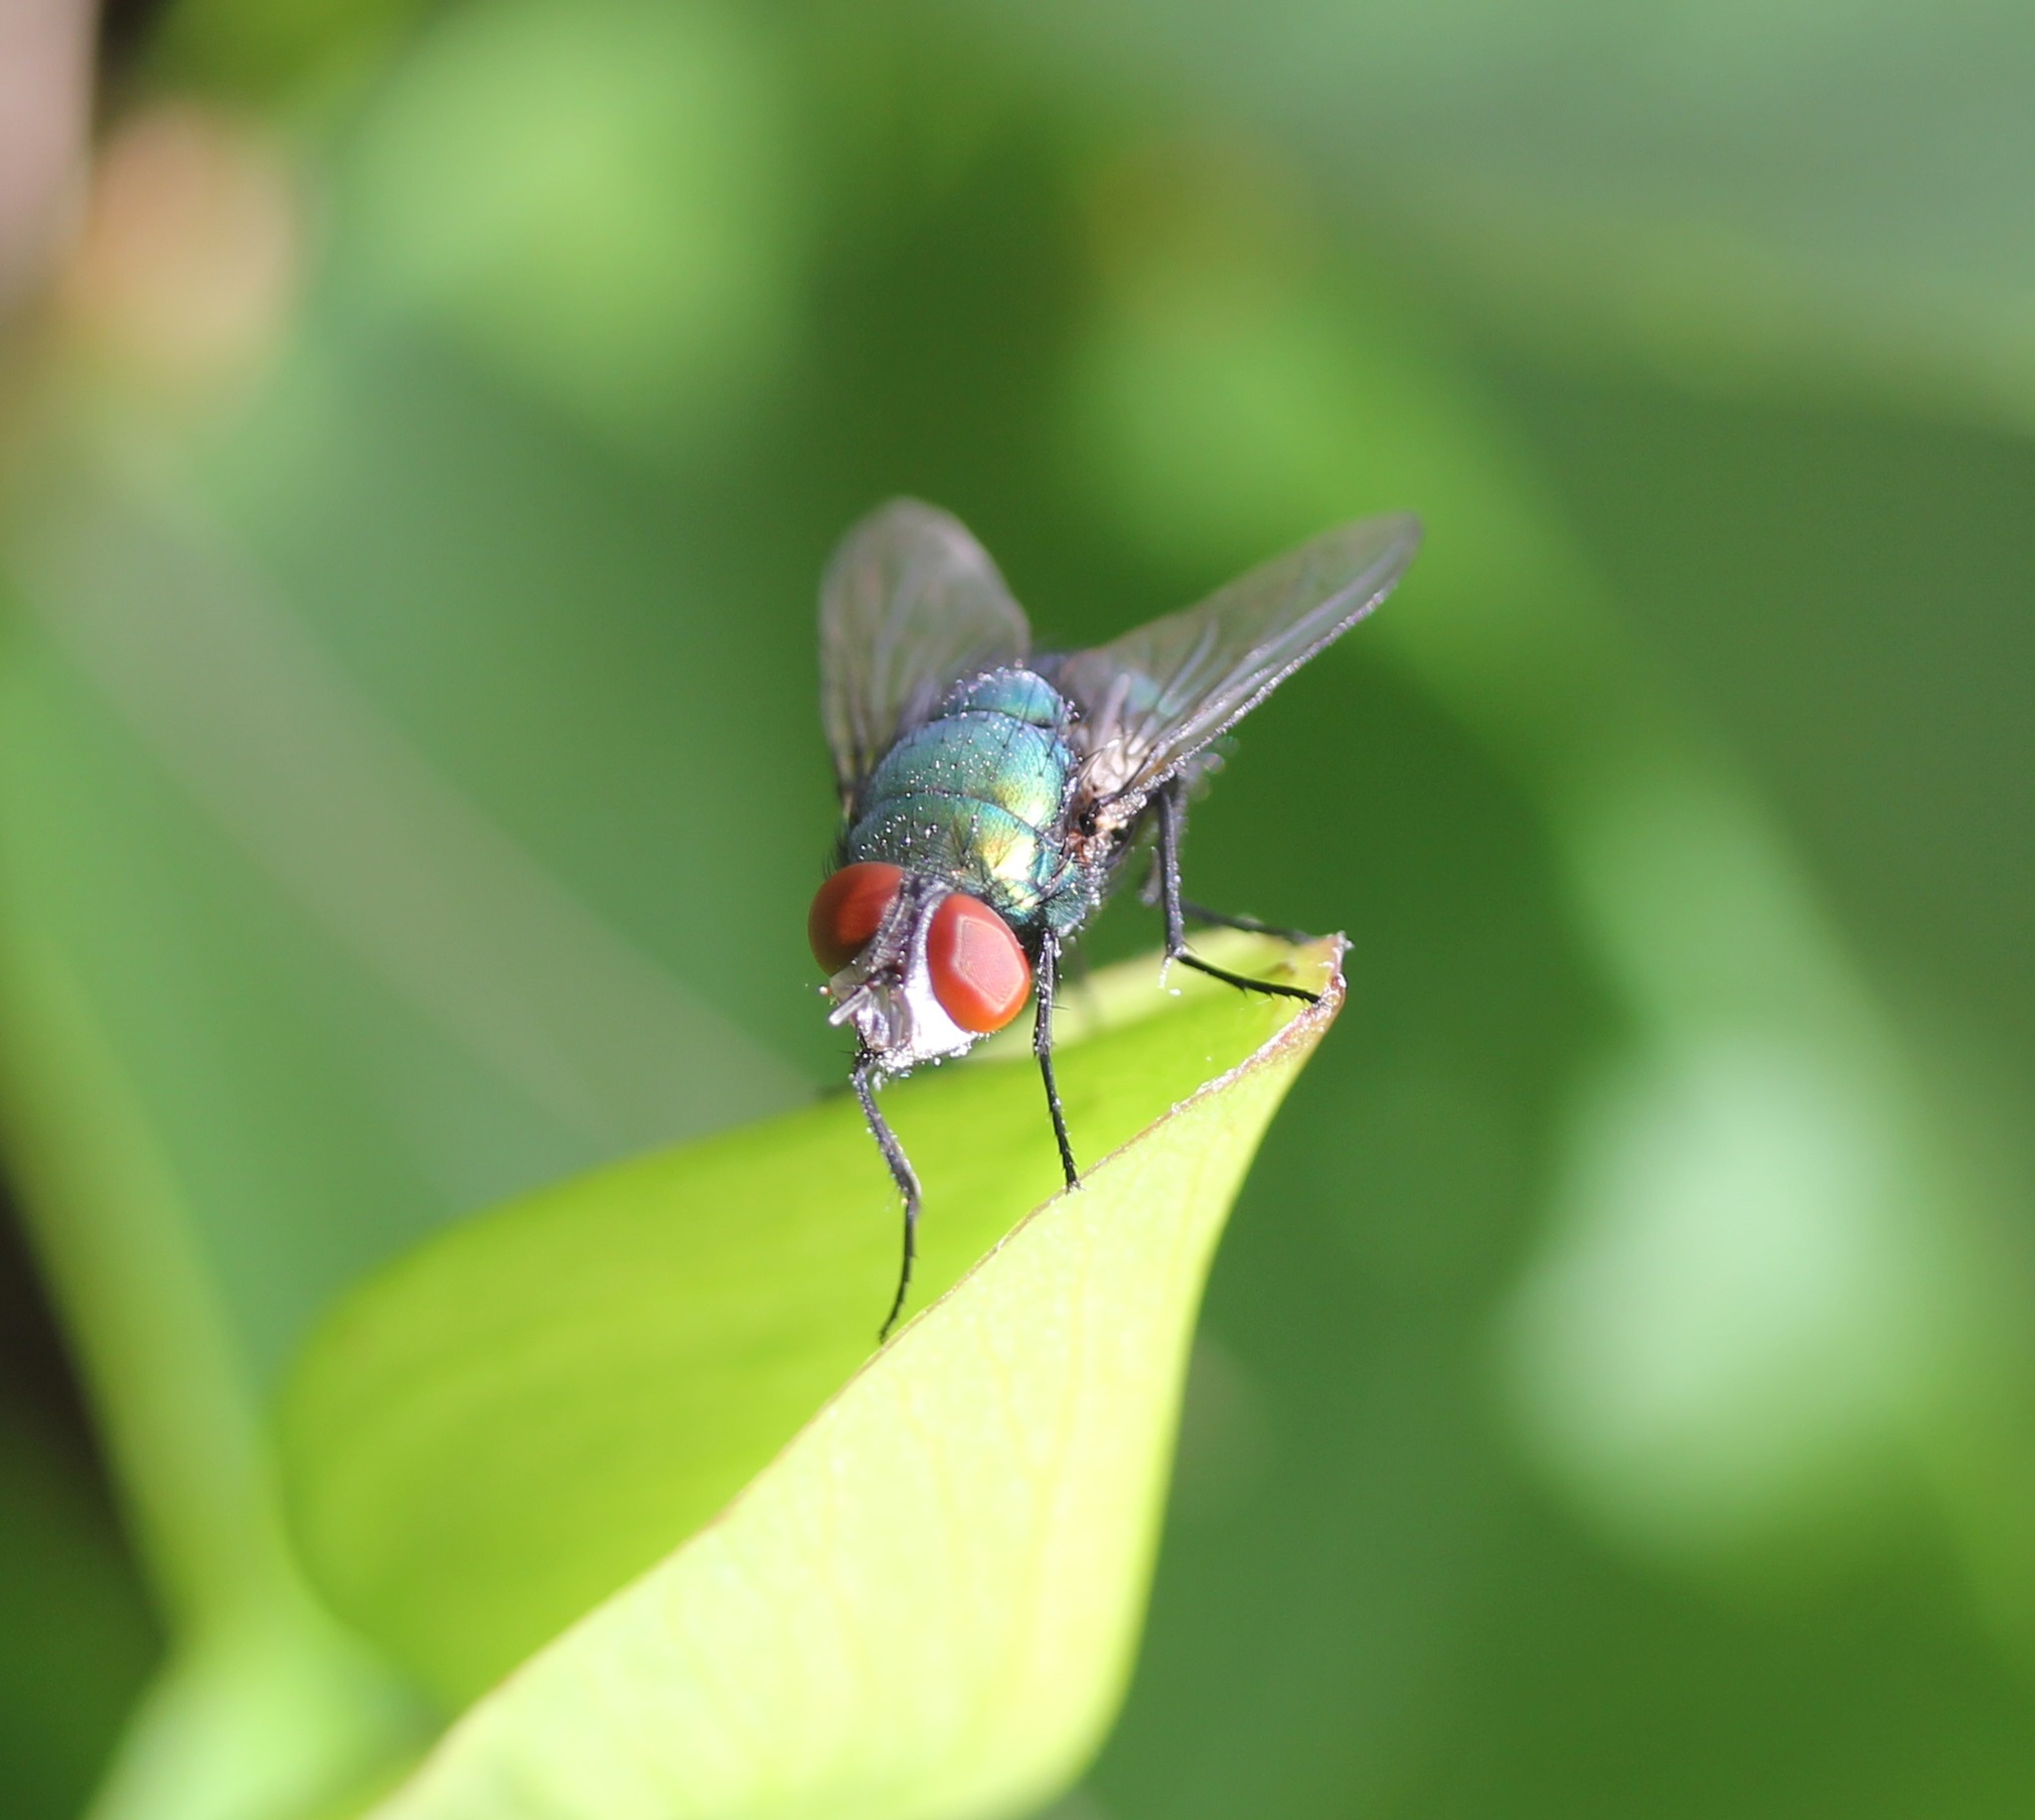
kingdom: Animalia
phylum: Arthropoda
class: Insecta
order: Diptera
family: Calliphoridae
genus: Lucilia
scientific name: Lucilia sericata
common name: Blow fly
